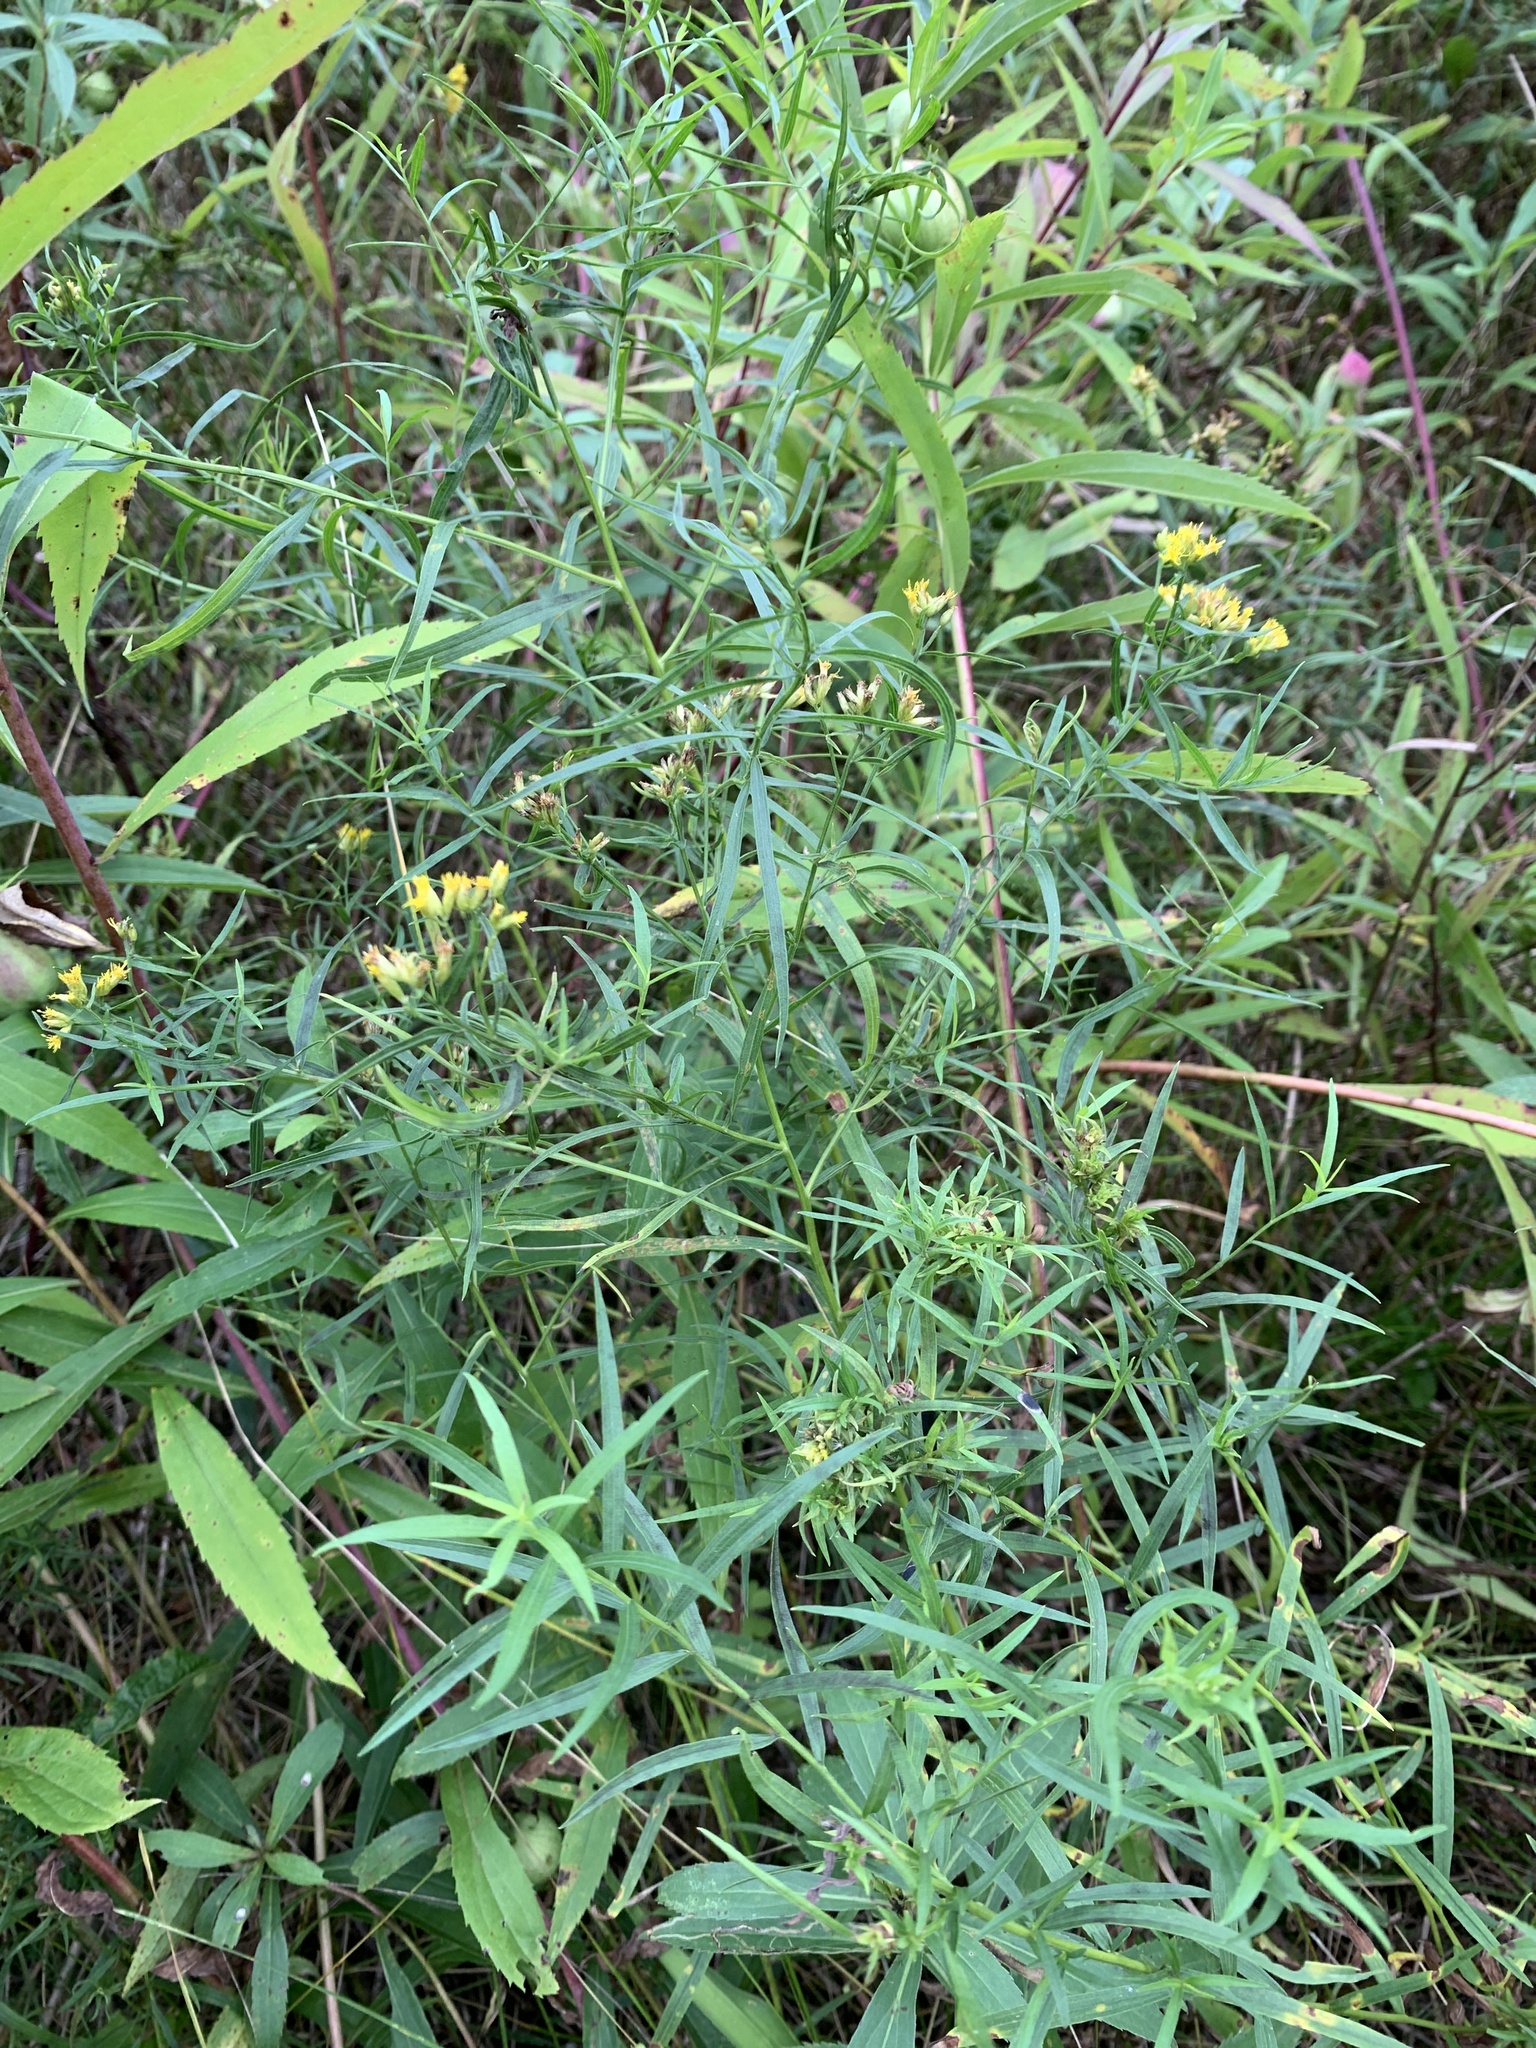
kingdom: Plantae
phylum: Tracheophyta
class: Magnoliopsida
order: Asterales
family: Asteraceae
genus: Euthamia
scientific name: Euthamia graminifolia
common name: Common goldentop
